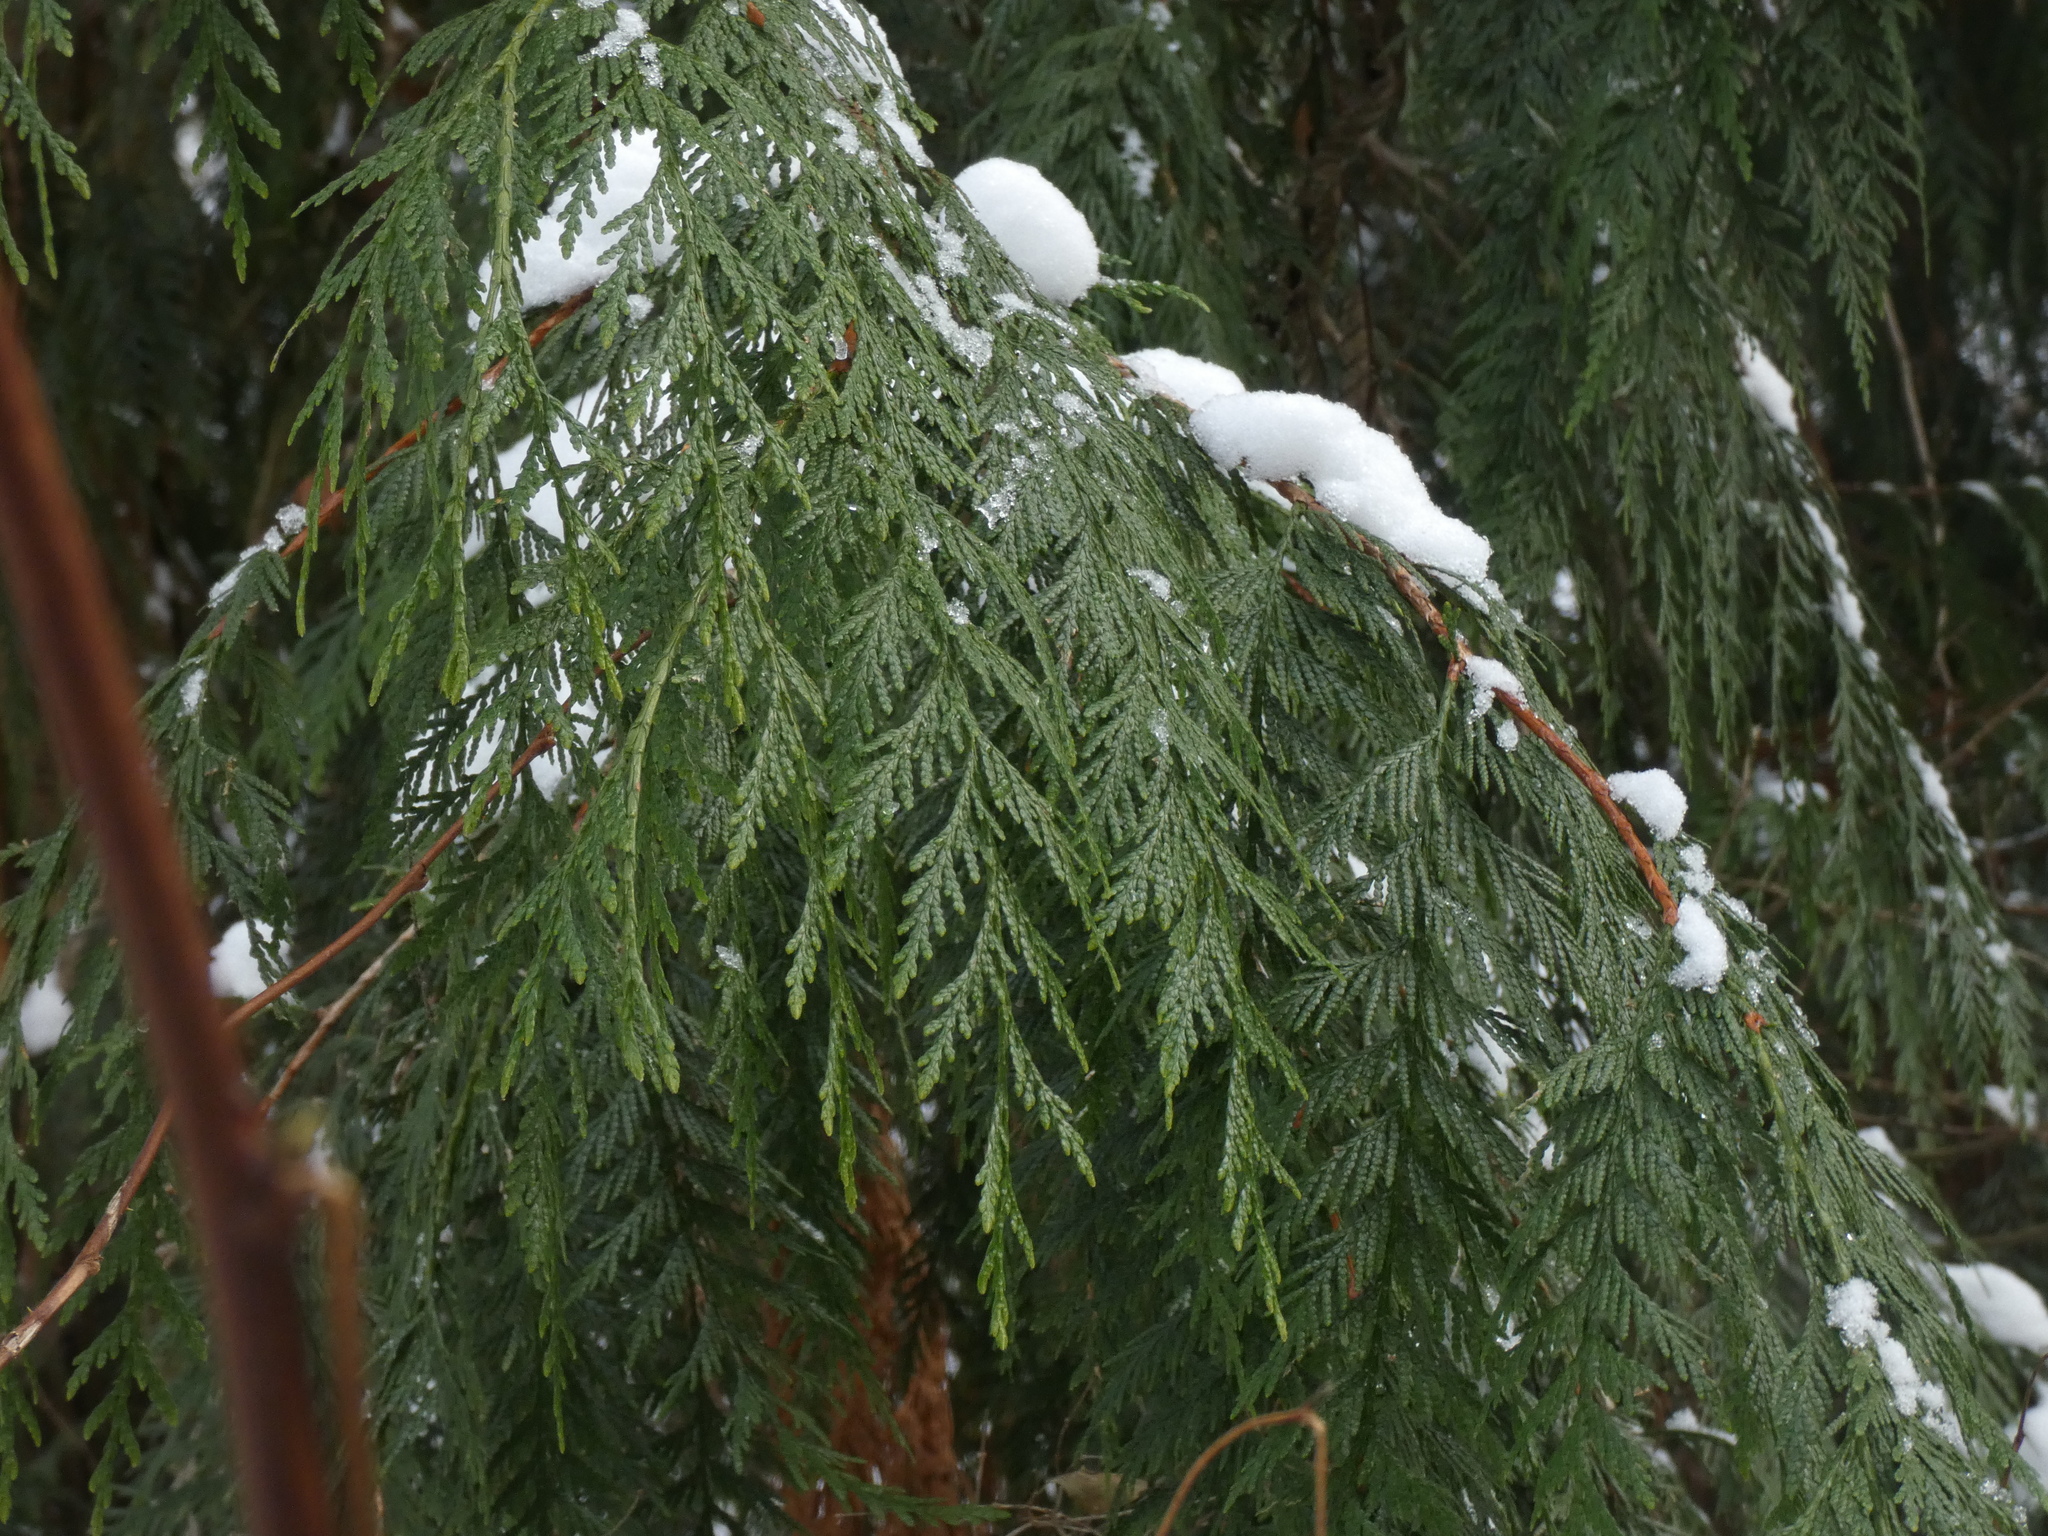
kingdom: Plantae
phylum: Tracheophyta
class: Pinopsida
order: Pinales
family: Cupressaceae
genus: Thuja
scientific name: Thuja plicata
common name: Western red-cedar
